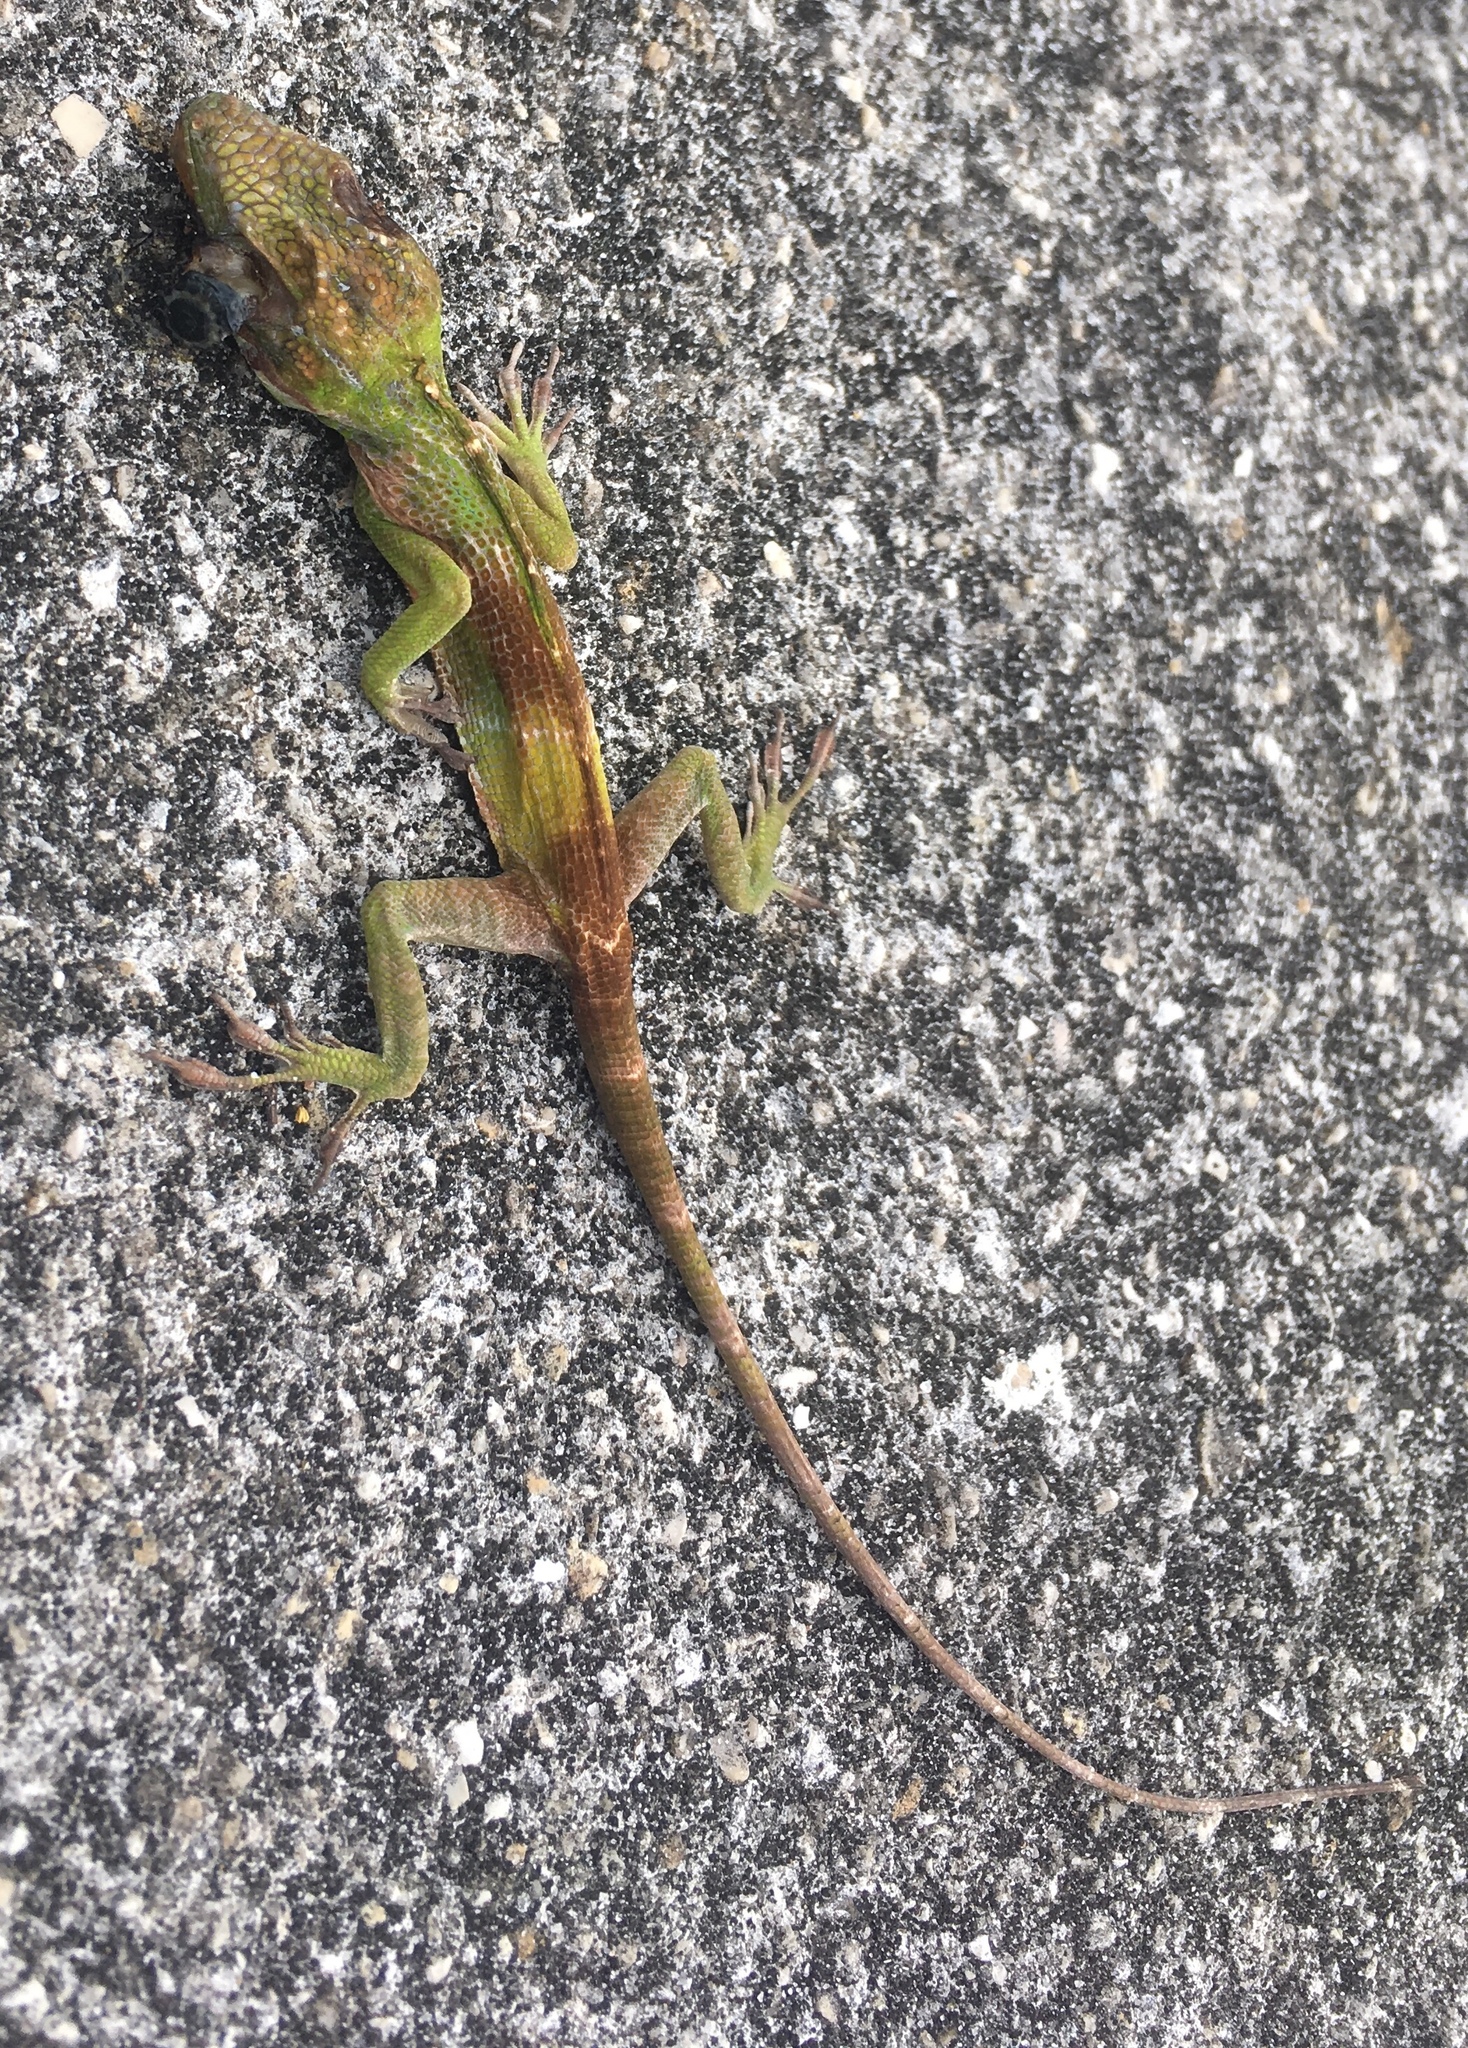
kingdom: Animalia
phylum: Chordata
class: Squamata
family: Dactyloidae
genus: Anolis
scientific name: Anolis equestris
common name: Knight anole
